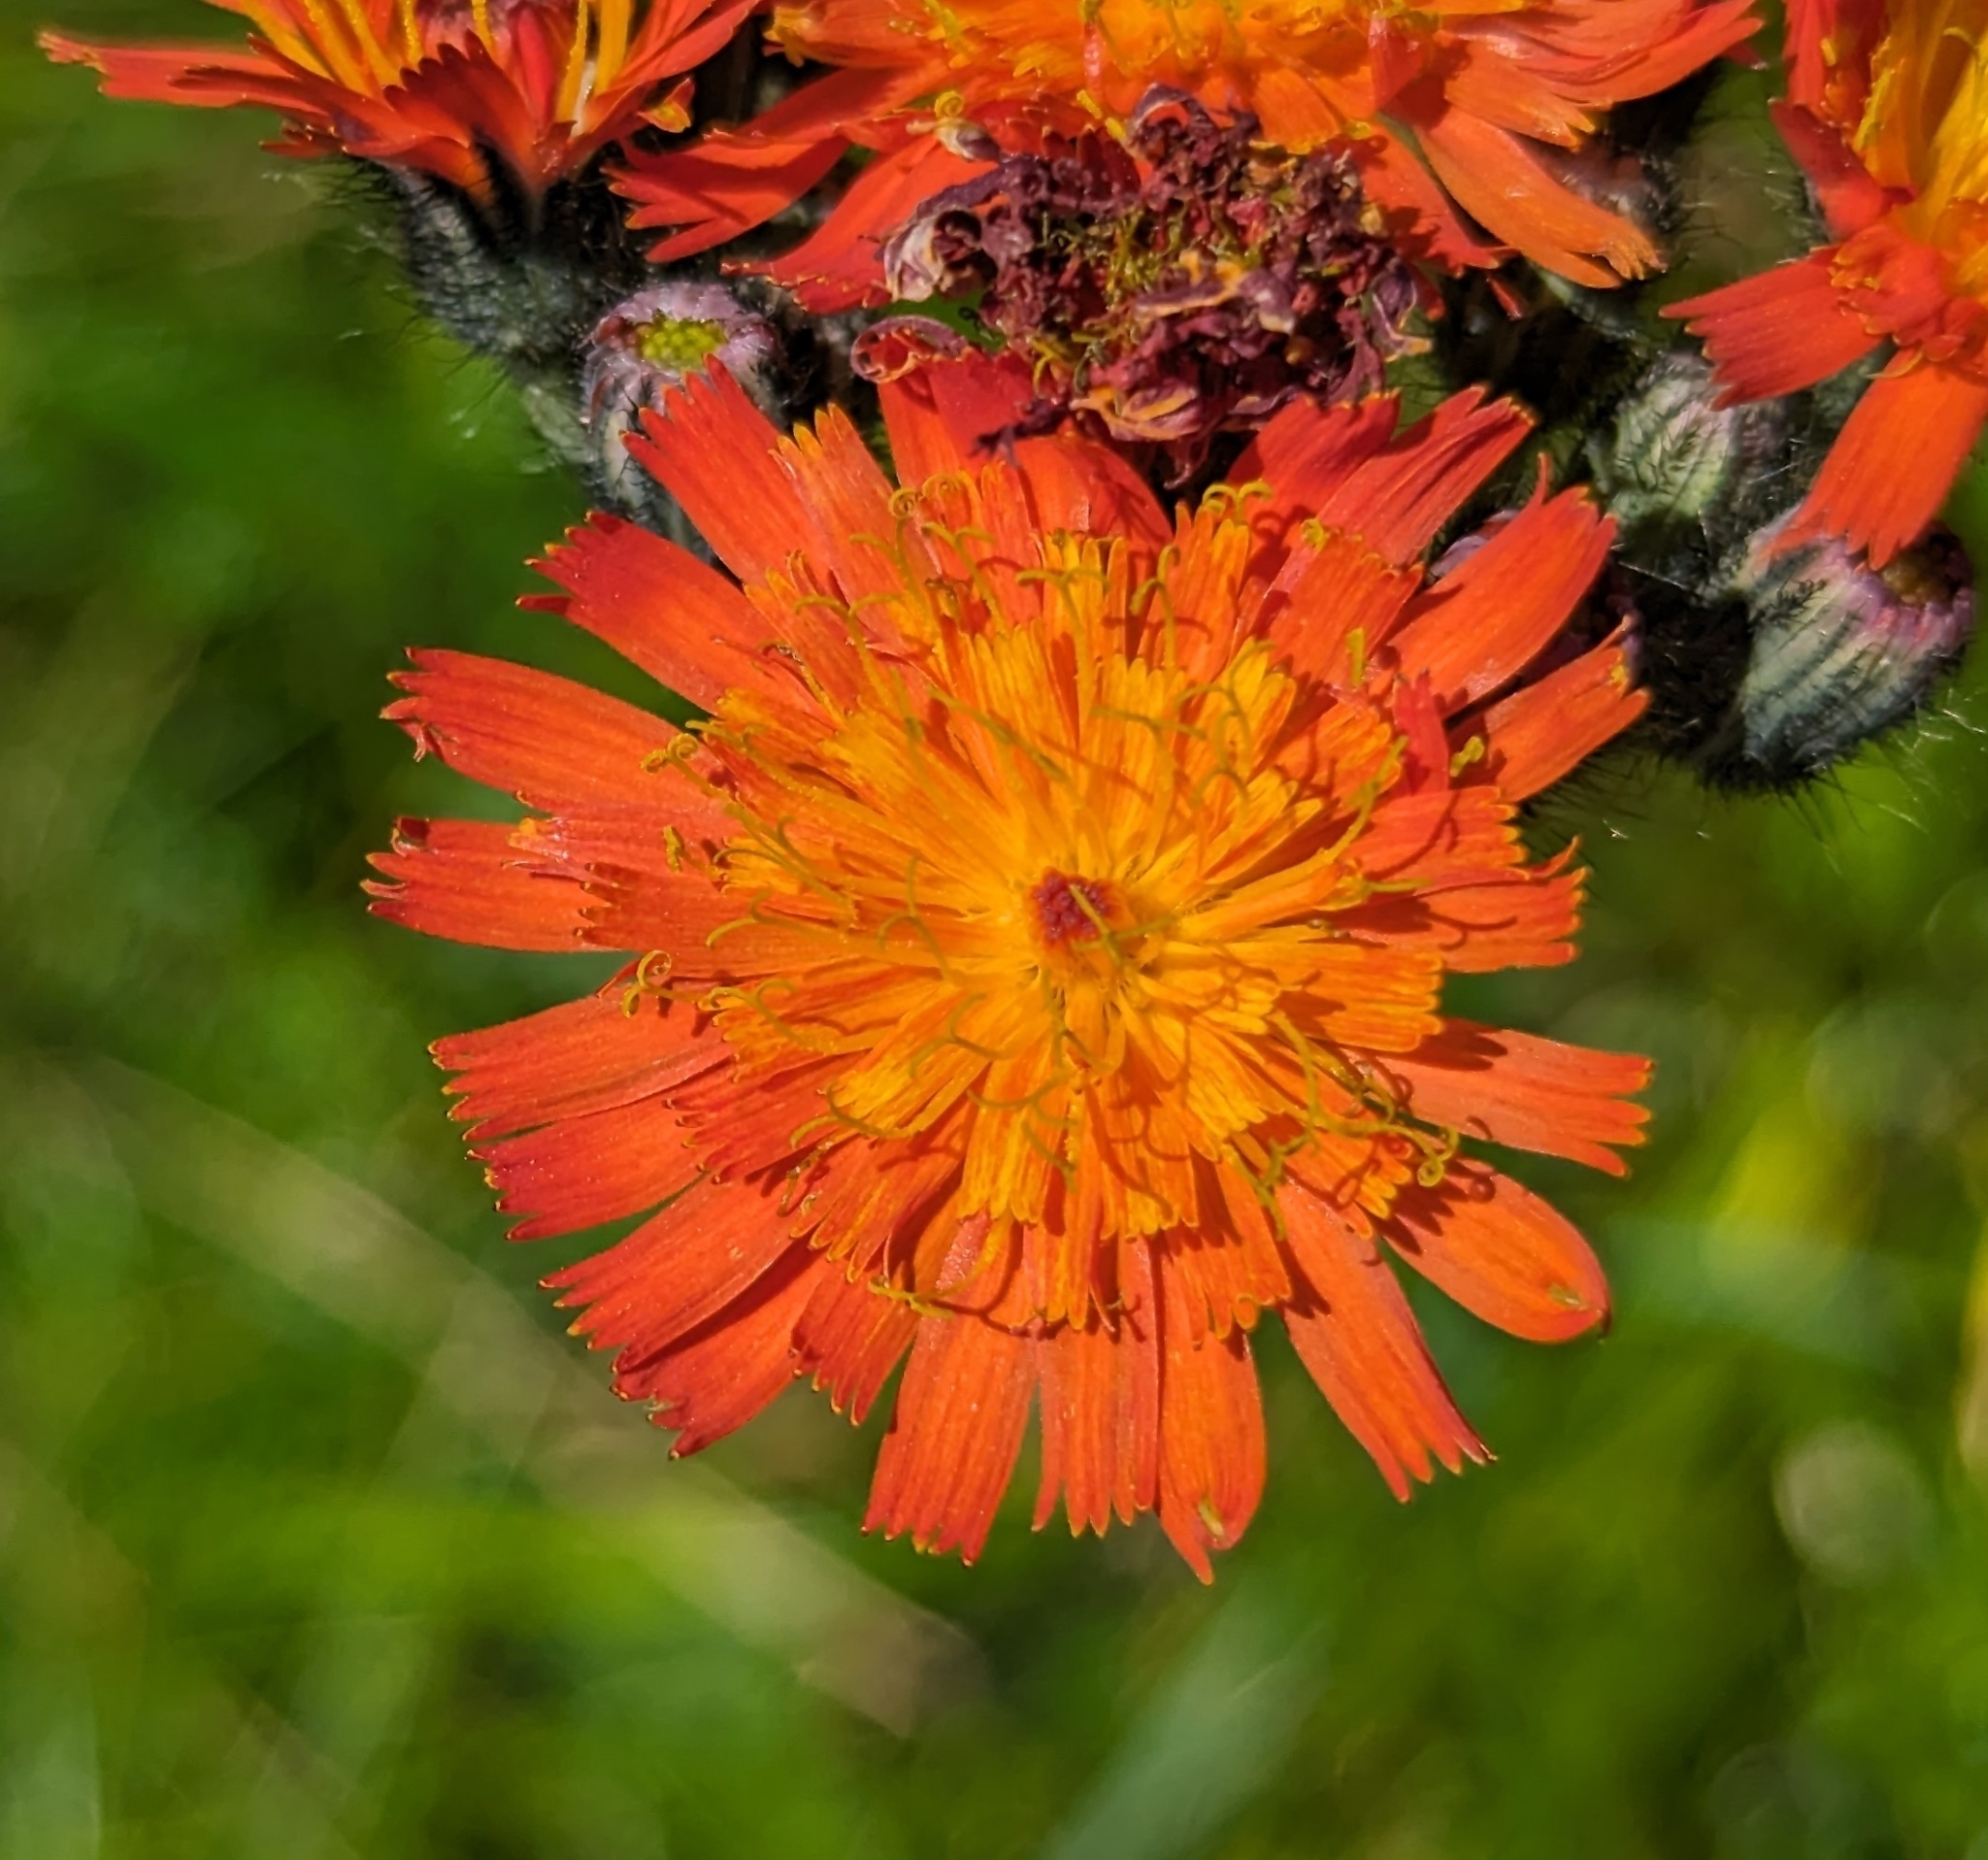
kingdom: Plantae
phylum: Tracheophyta
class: Magnoliopsida
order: Asterales
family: Asteraceae
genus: Pilosella
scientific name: Pilosella aurantiaca
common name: Fox-and-cubs
